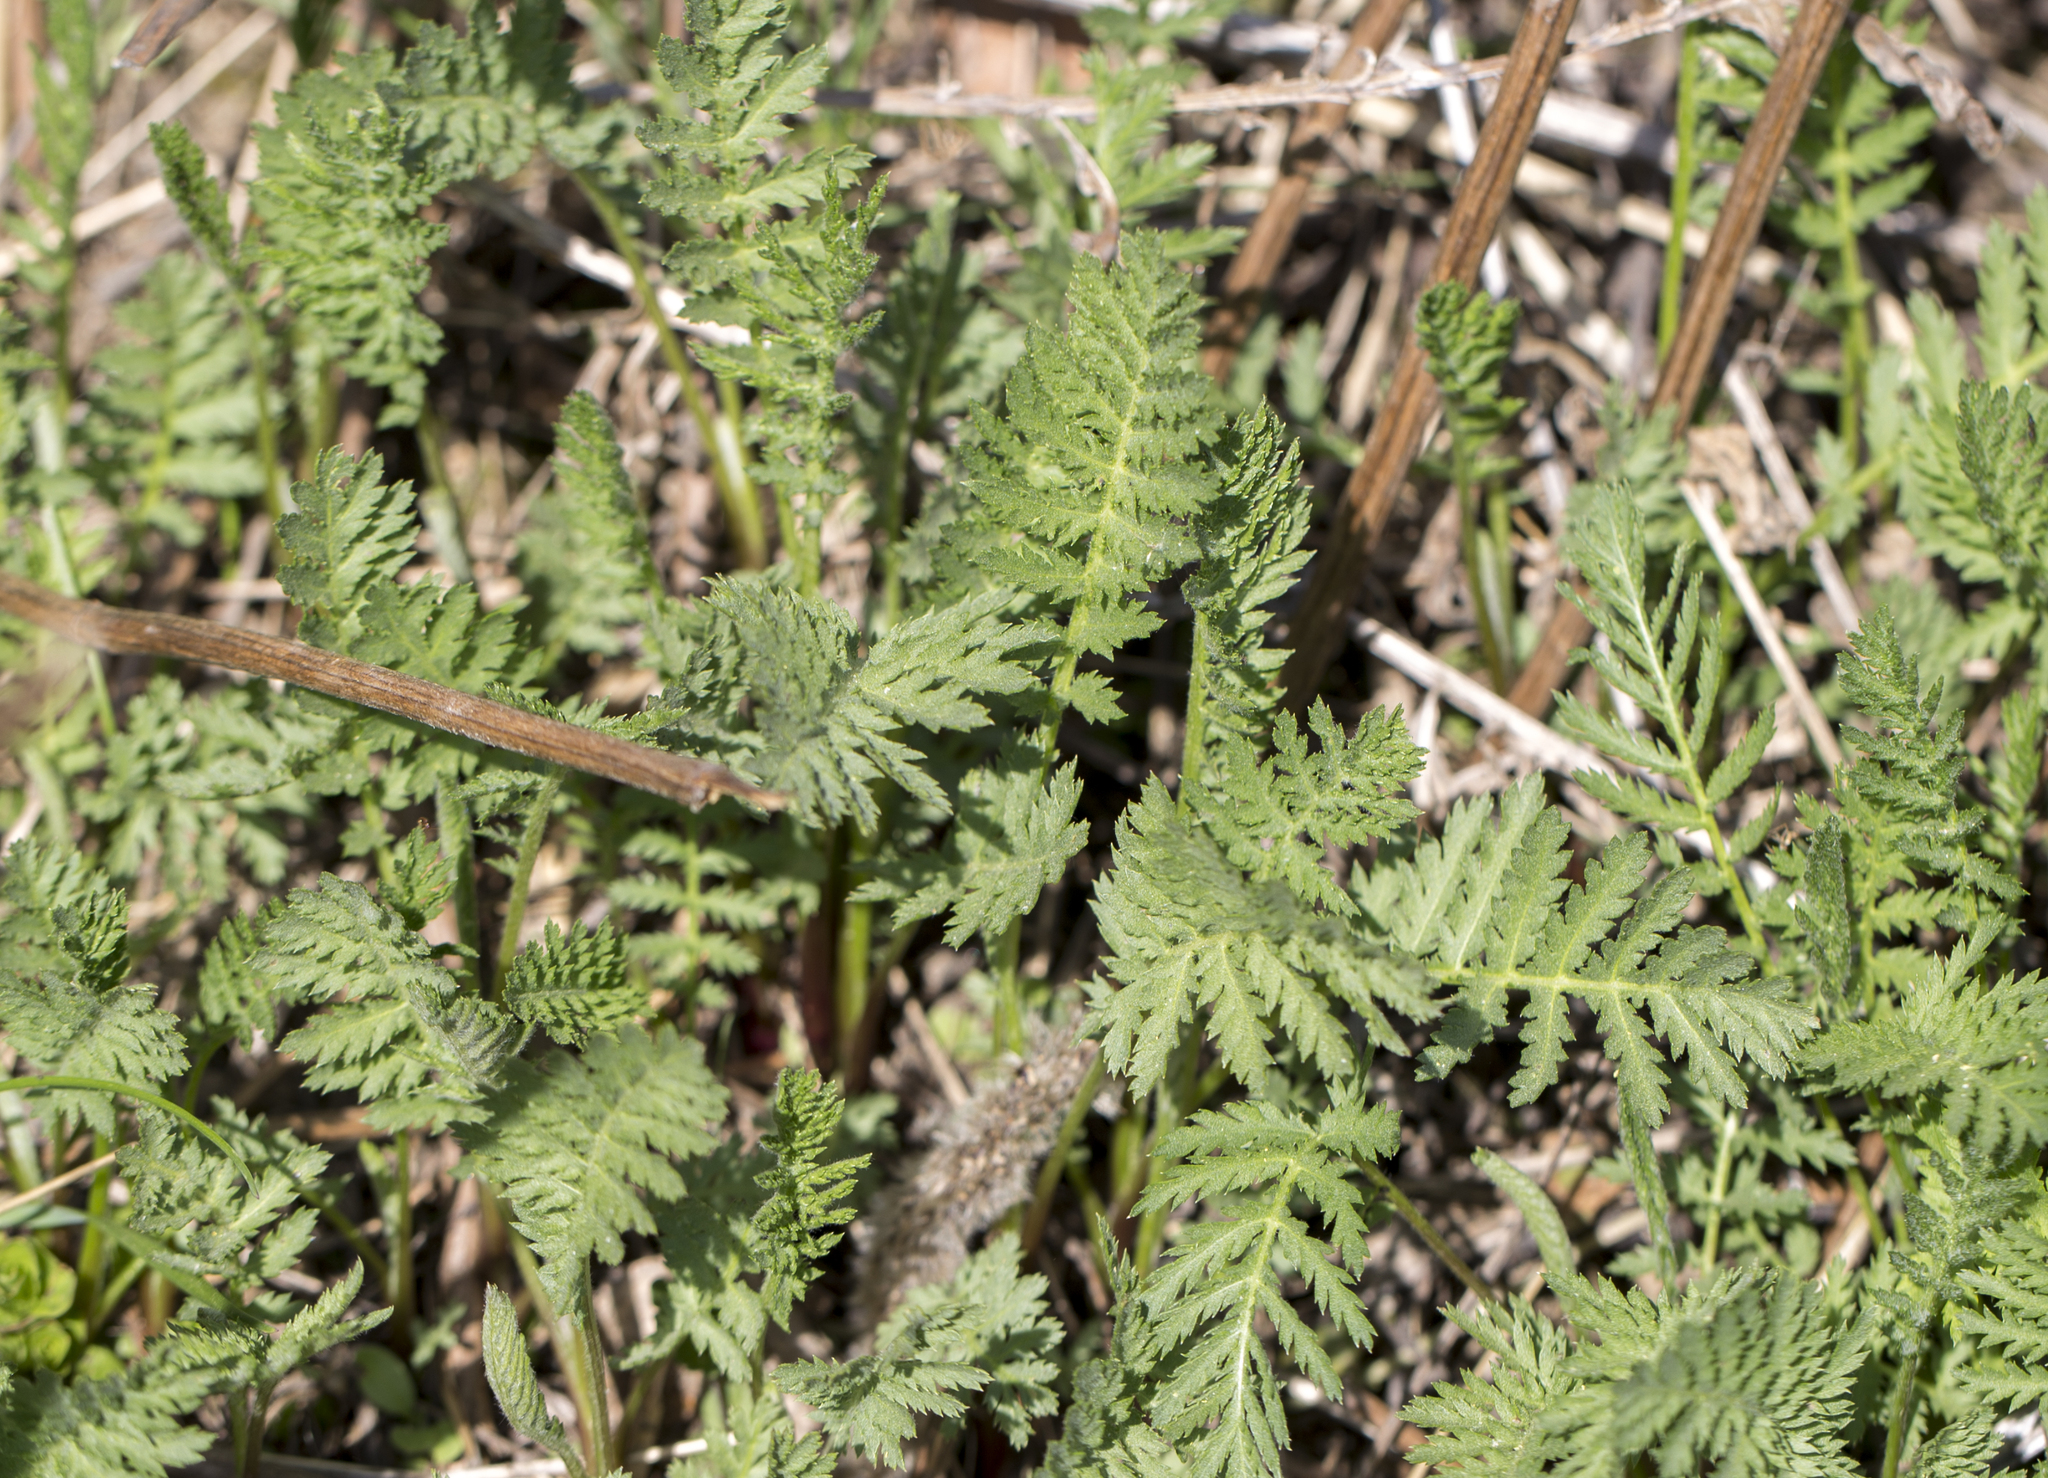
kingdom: Plantae
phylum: Tracheophyta
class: Magnoliopsida
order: Asterales
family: Asteraceae
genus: Tanacetum
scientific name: Tanacetum vulgare
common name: Common tansy
